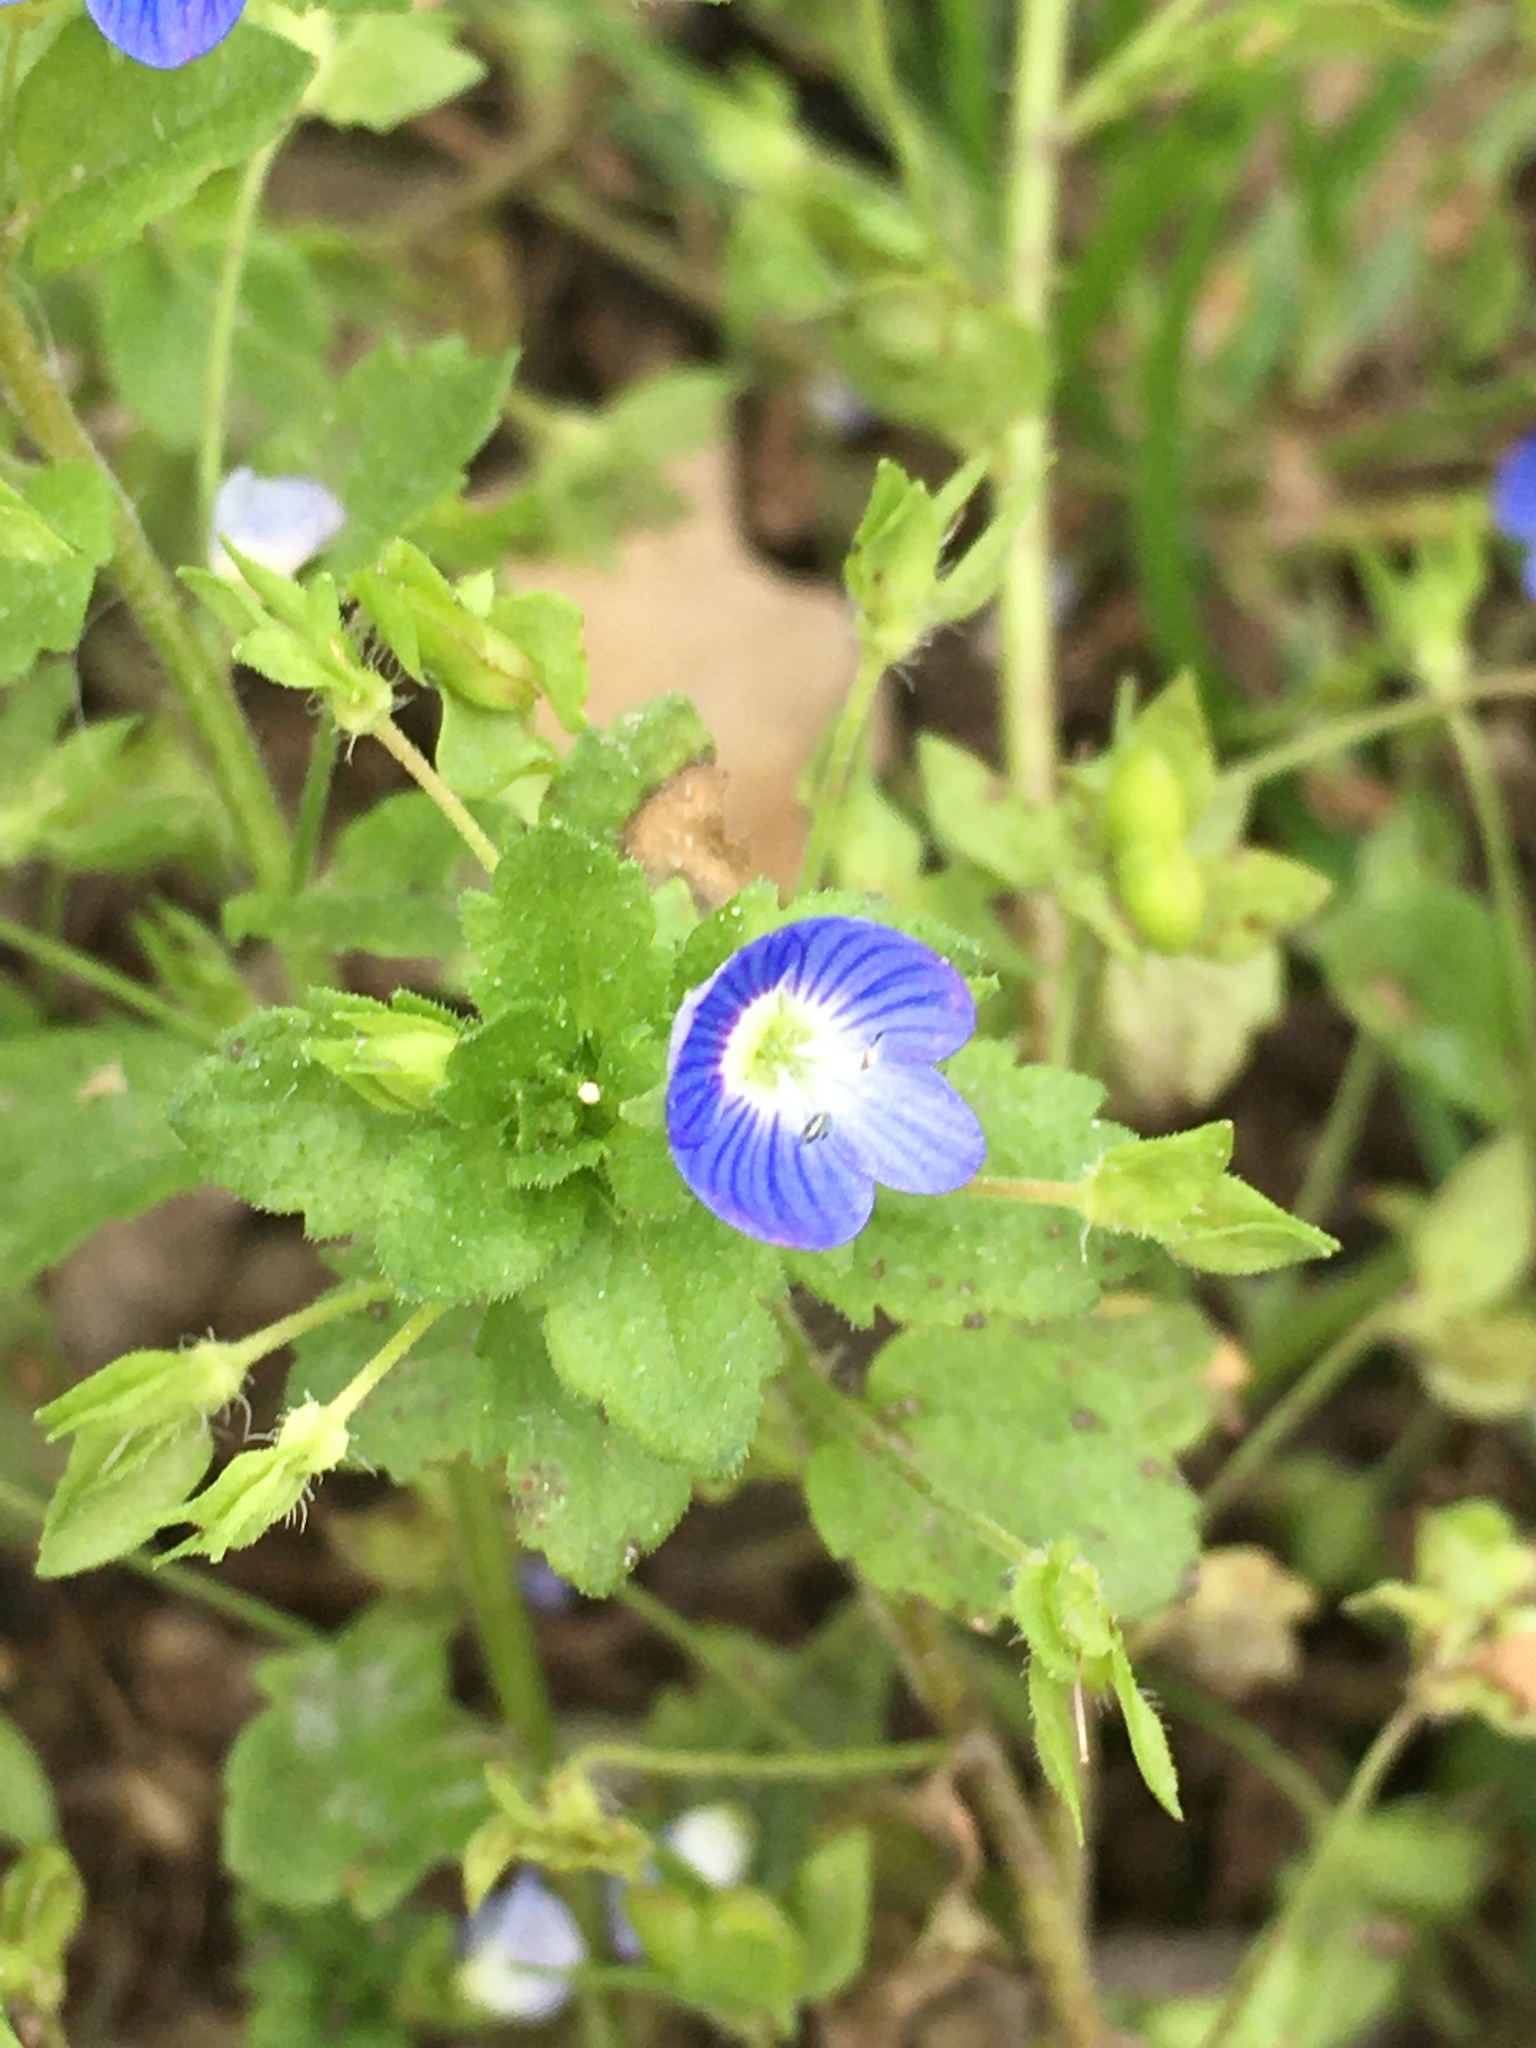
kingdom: Plantae
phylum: Tracheophyta
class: Magnoliopsida
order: Lamiales
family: Plantaginaceae
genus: Veronica
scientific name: Veronica persica
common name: Common field-speedwell
